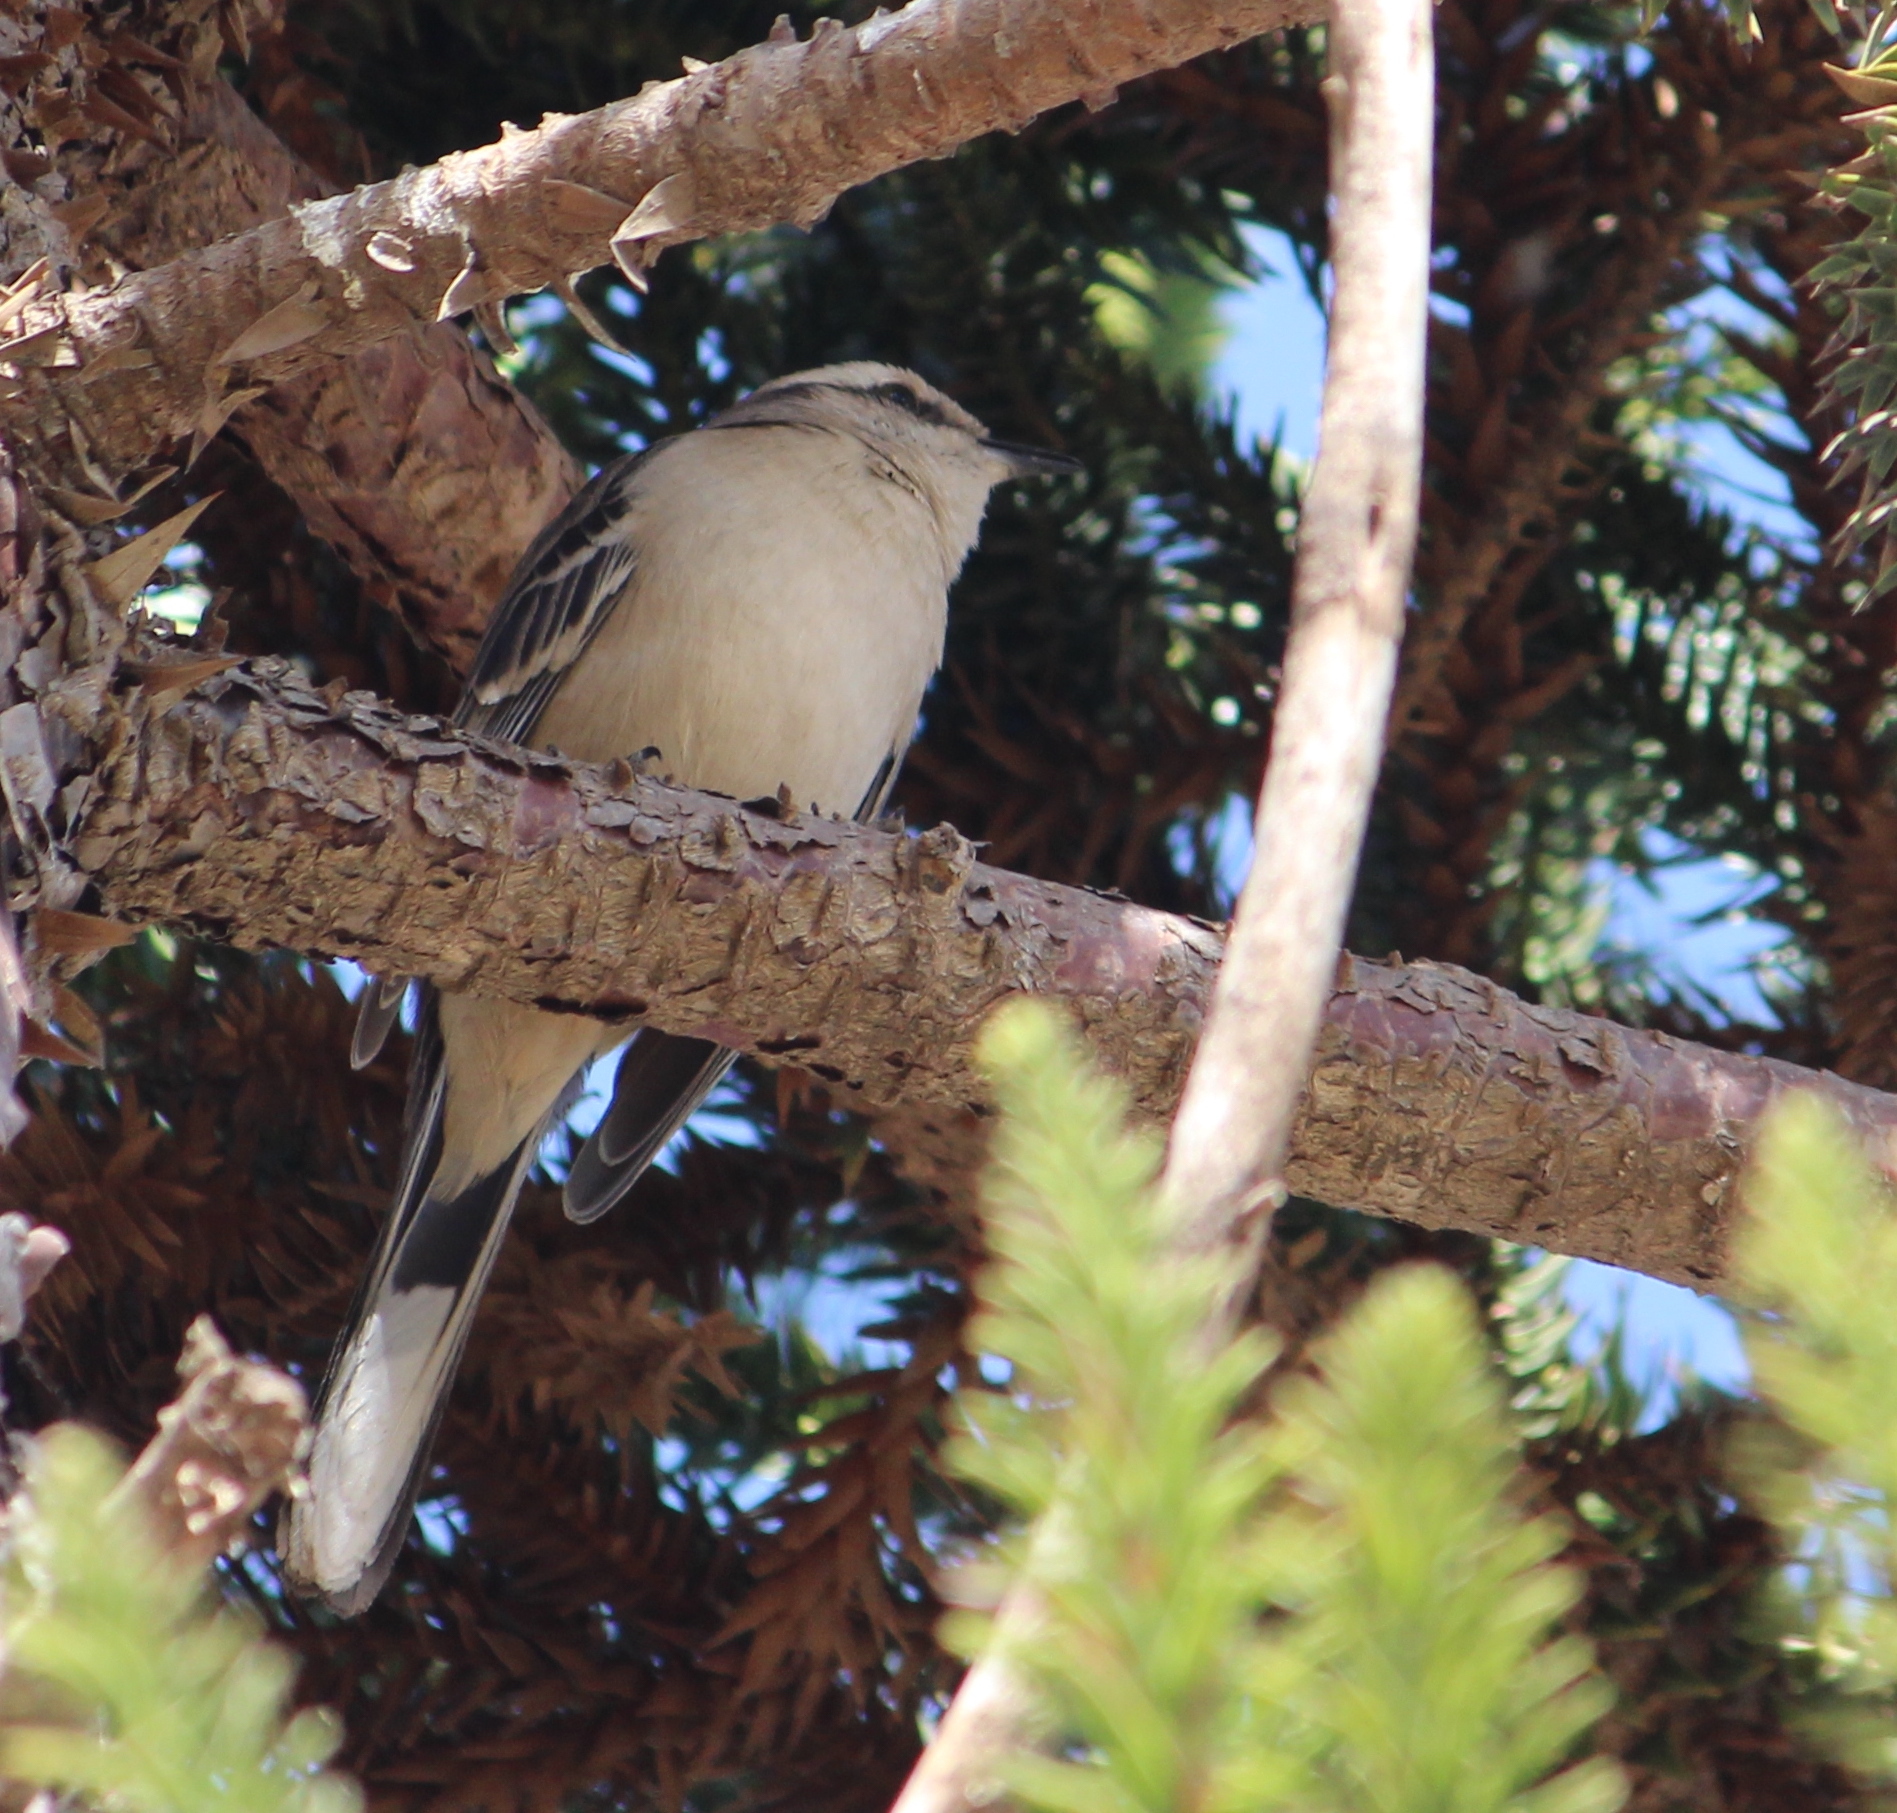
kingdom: Animalia
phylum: Chordata
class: Aves
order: Passeriformes
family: Mimidae
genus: Mimus
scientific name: Mimus saturninus
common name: Chalk-browed mockingbird
